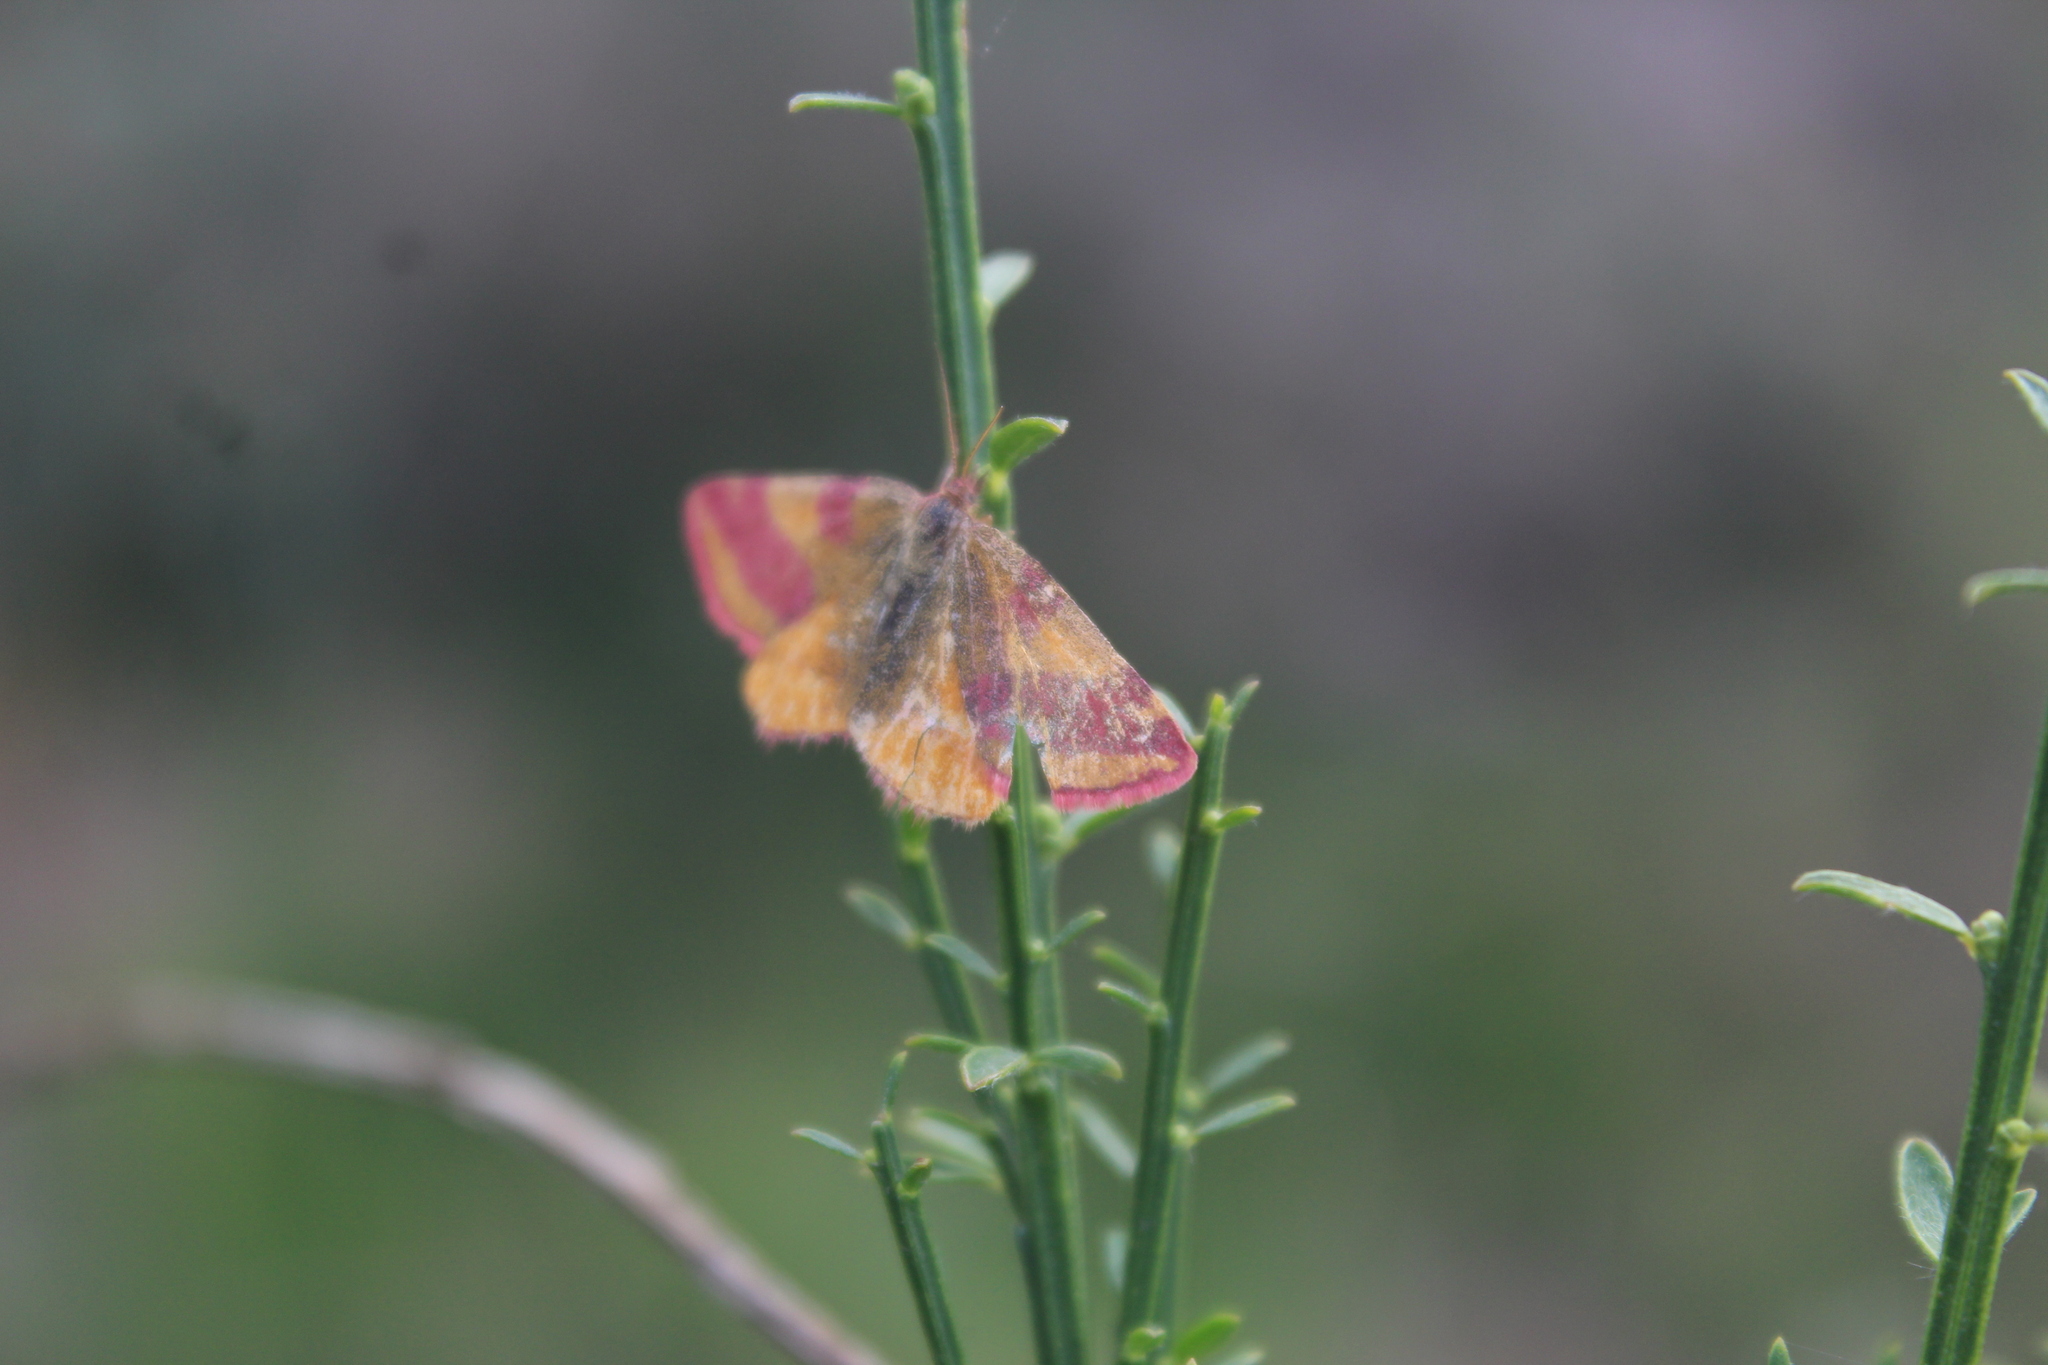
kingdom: Animalia
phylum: Arthropoda
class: Insecta
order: Lepidoptera
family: Geometridae
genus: Lythria
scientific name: Lythria cruentaria
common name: Purple-barred yellow
